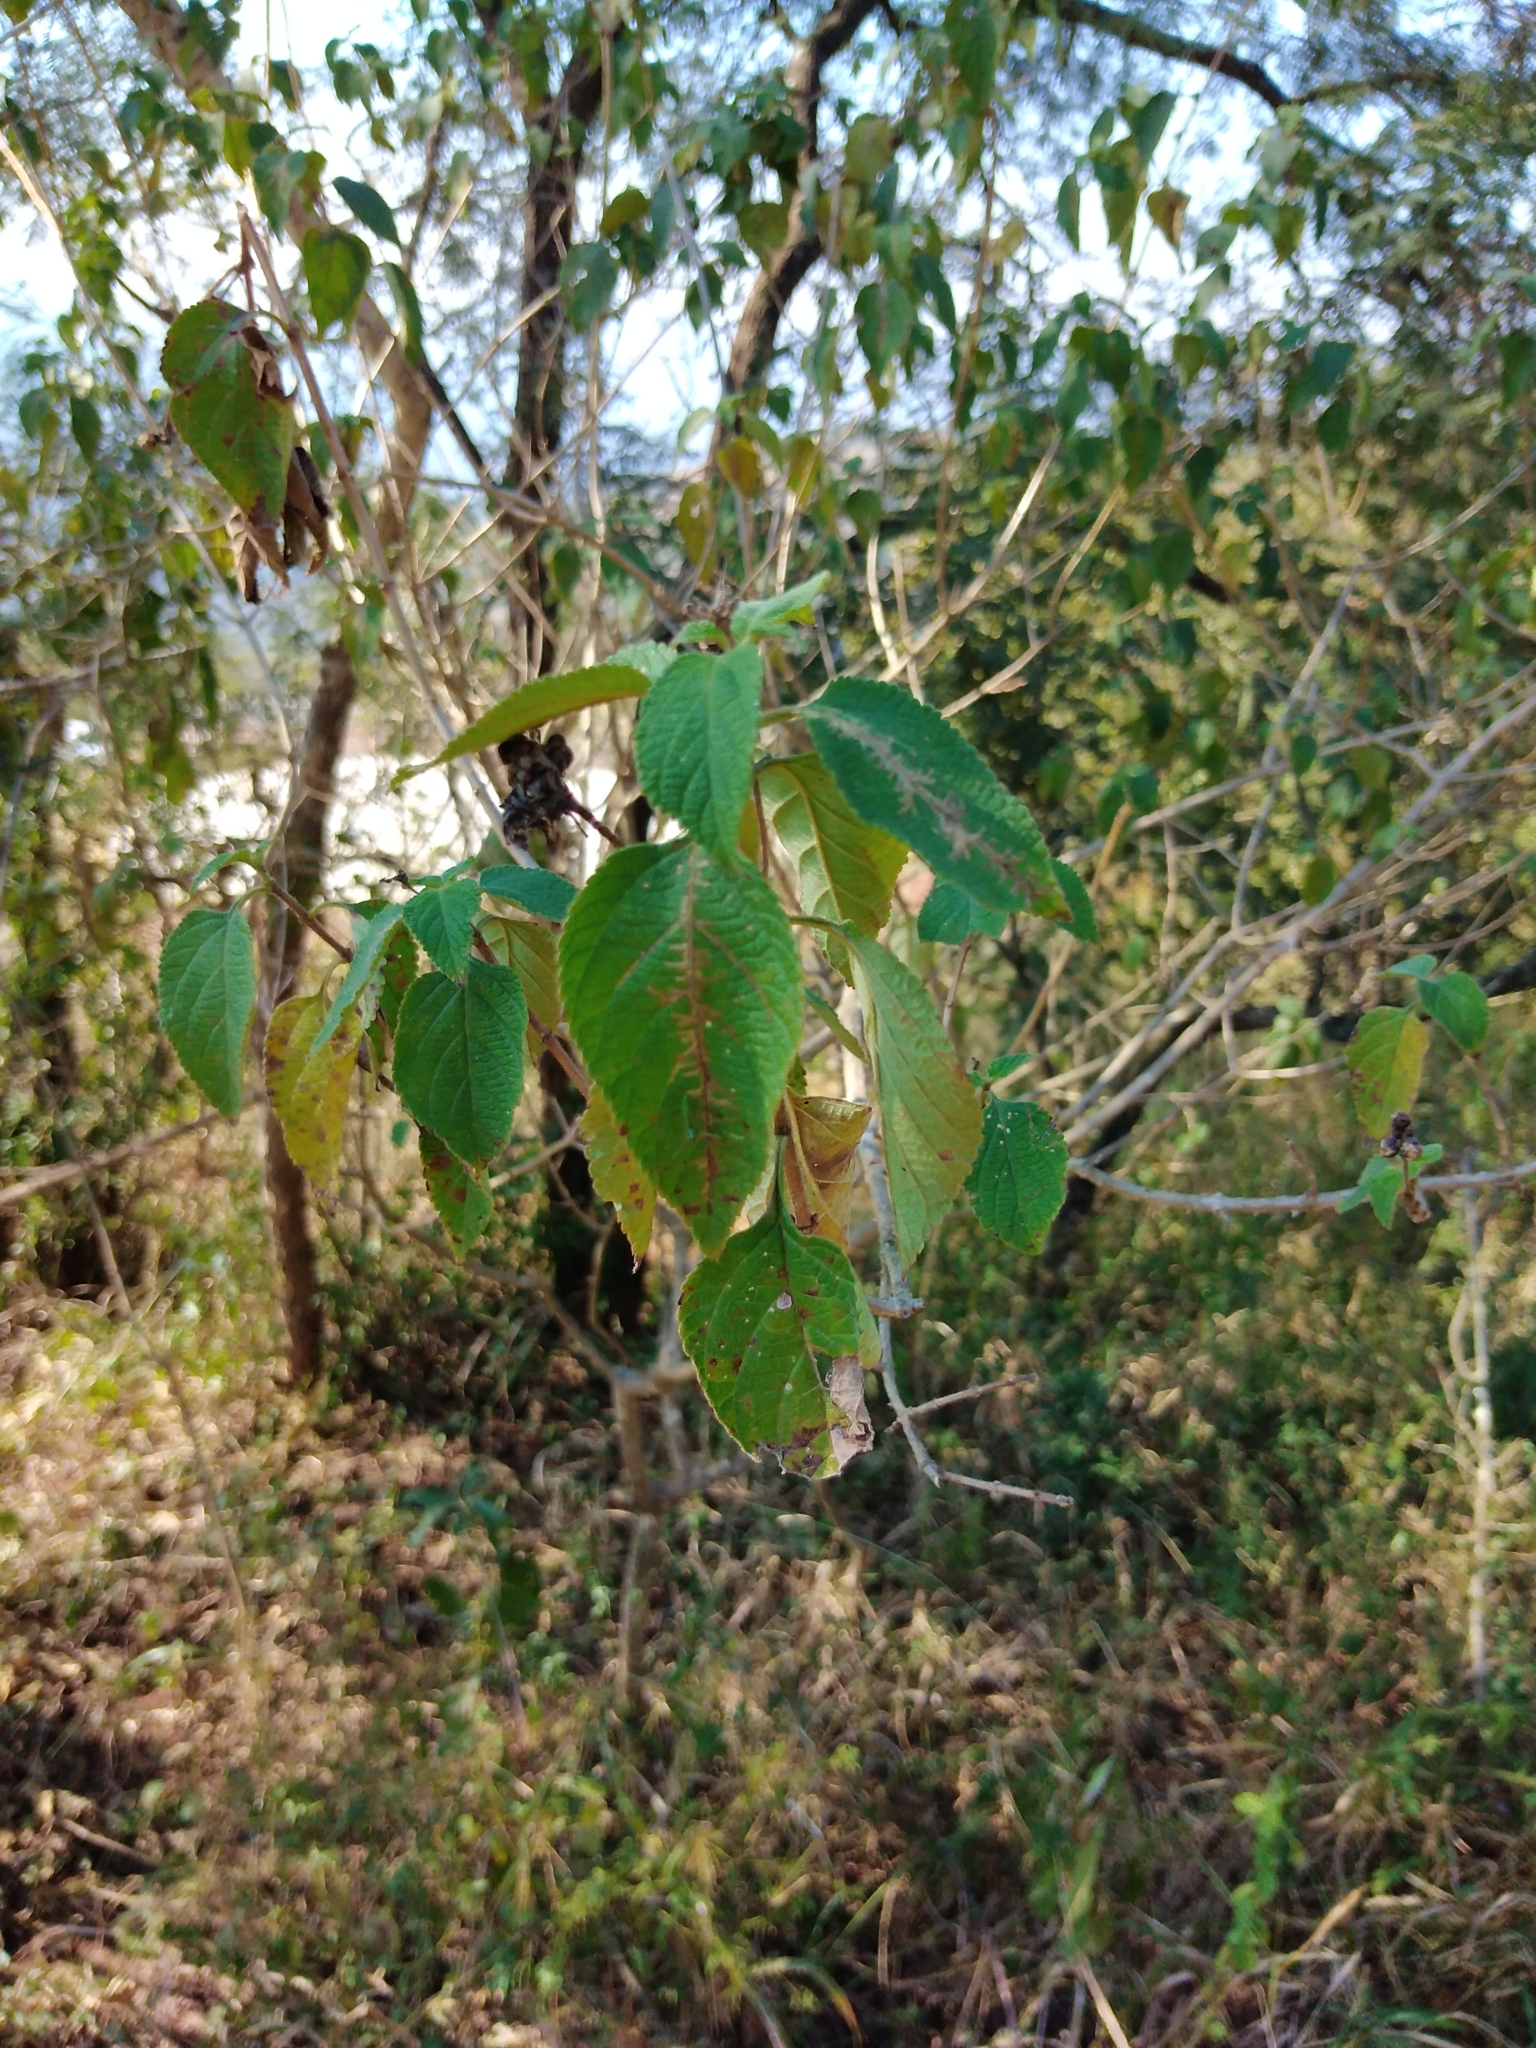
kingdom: Plantae
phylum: Tracheophyta
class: Magnoliopsida
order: Lamiales
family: Verbenaceae
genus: Lantana
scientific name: Lantana camara
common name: Lantana
